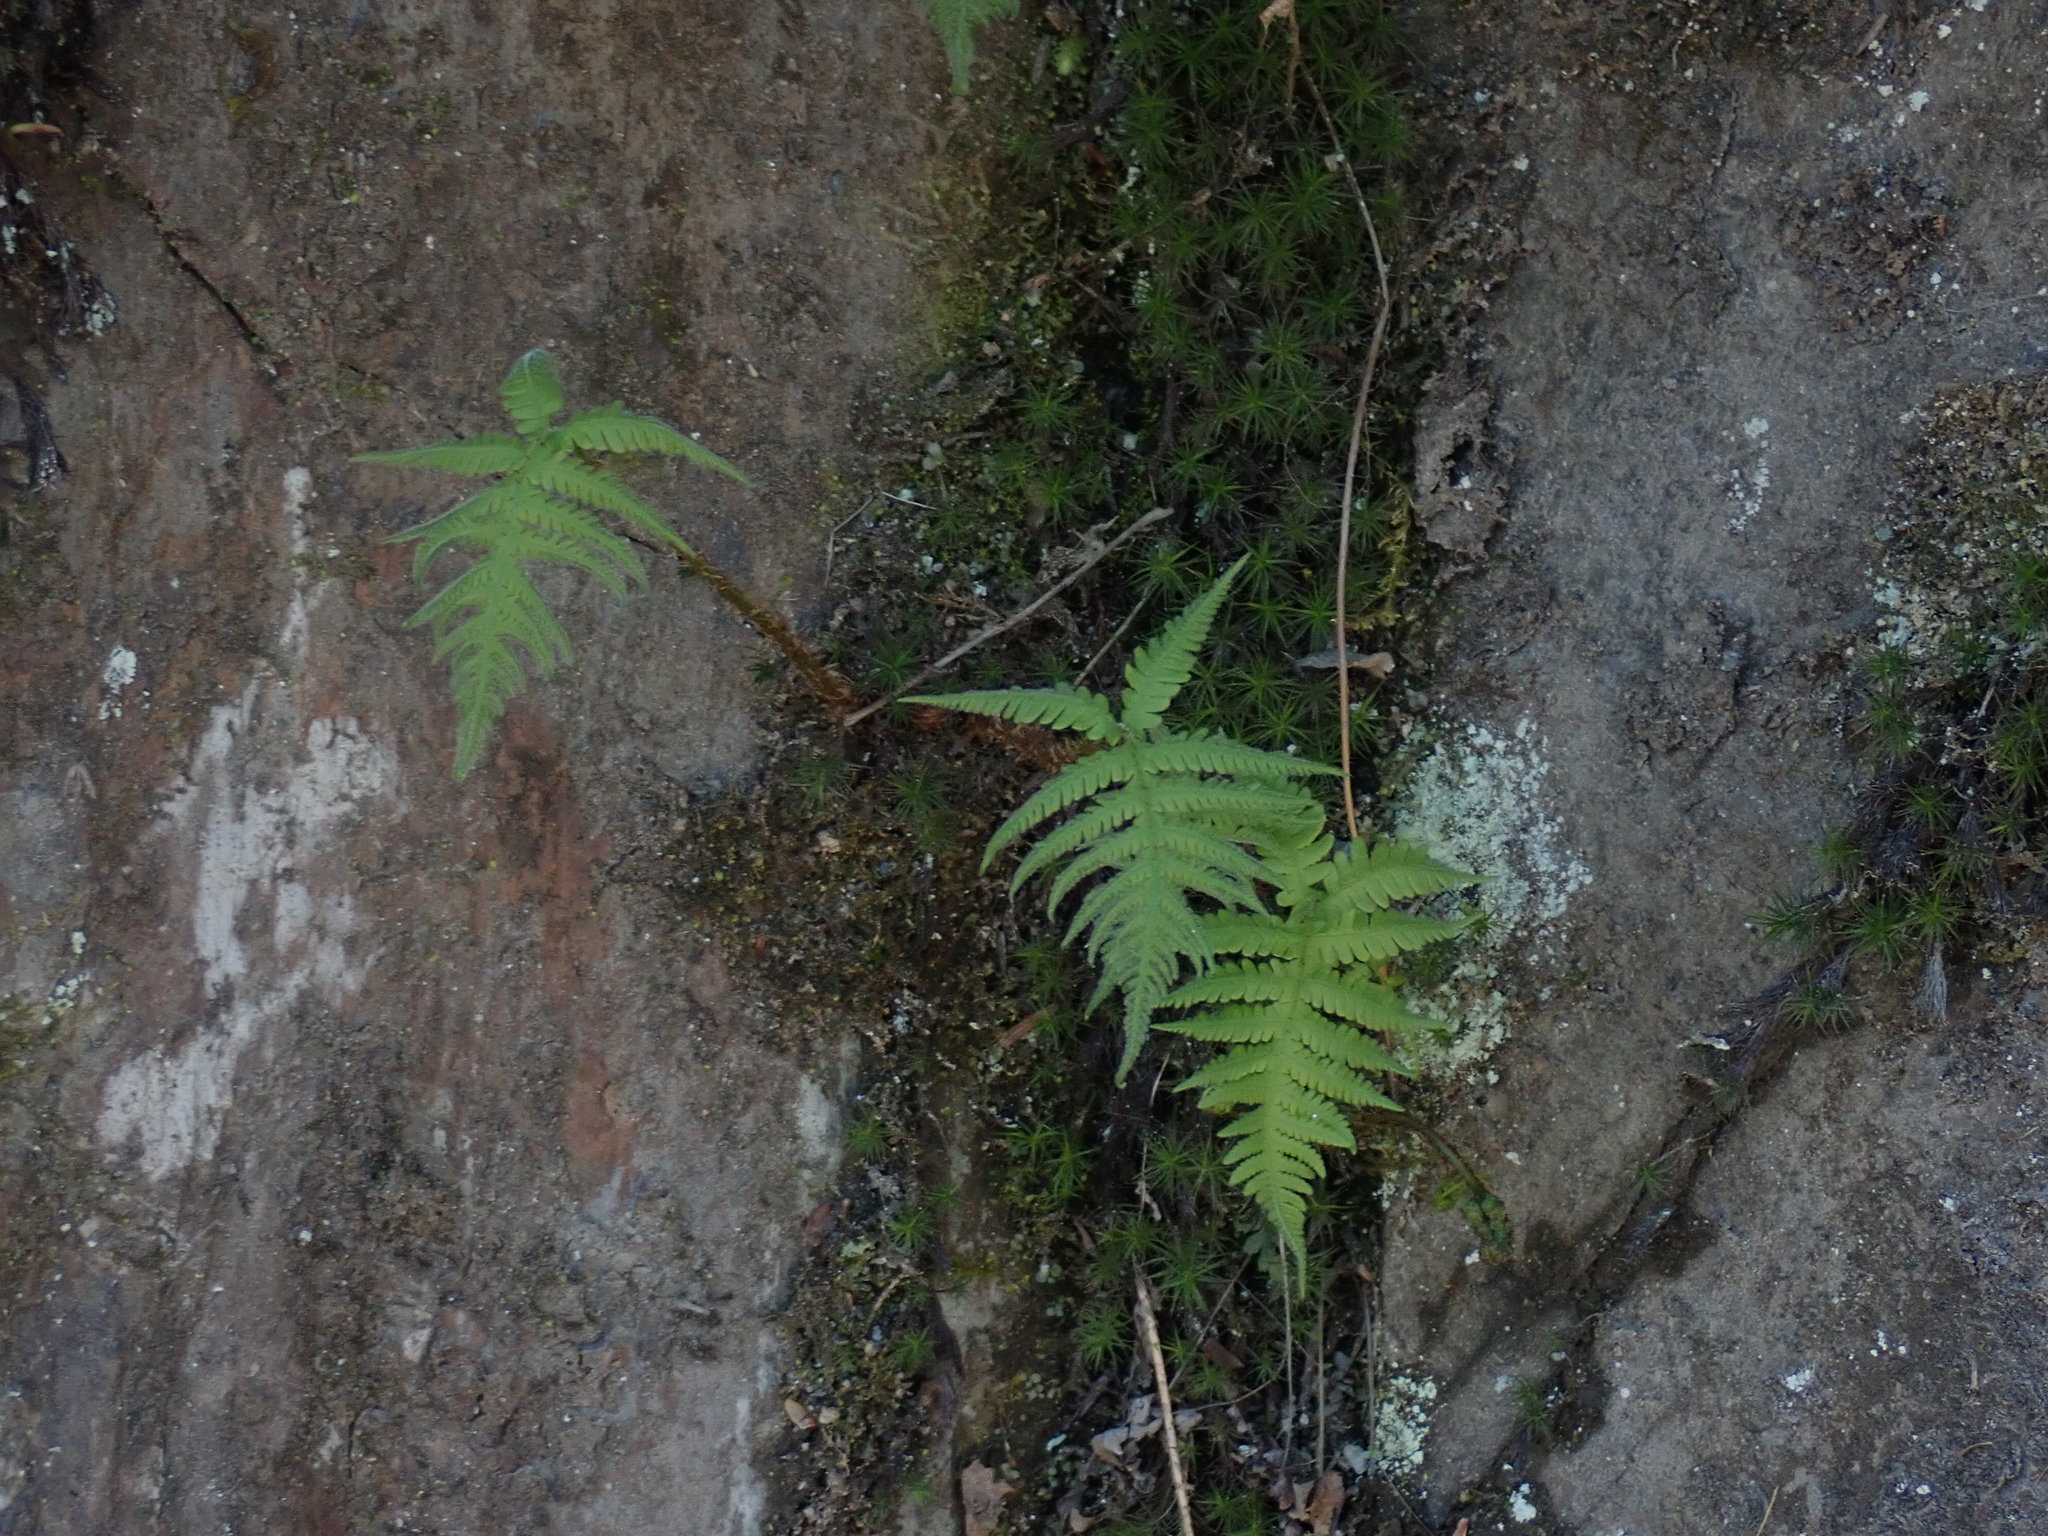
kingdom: Plantae
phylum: Tracheophyta
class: Polypodiopsida
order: Polypodiales
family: Thelypteridaceae
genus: Phegopteris
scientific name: Phegopteris connectilis
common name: Beech fern
